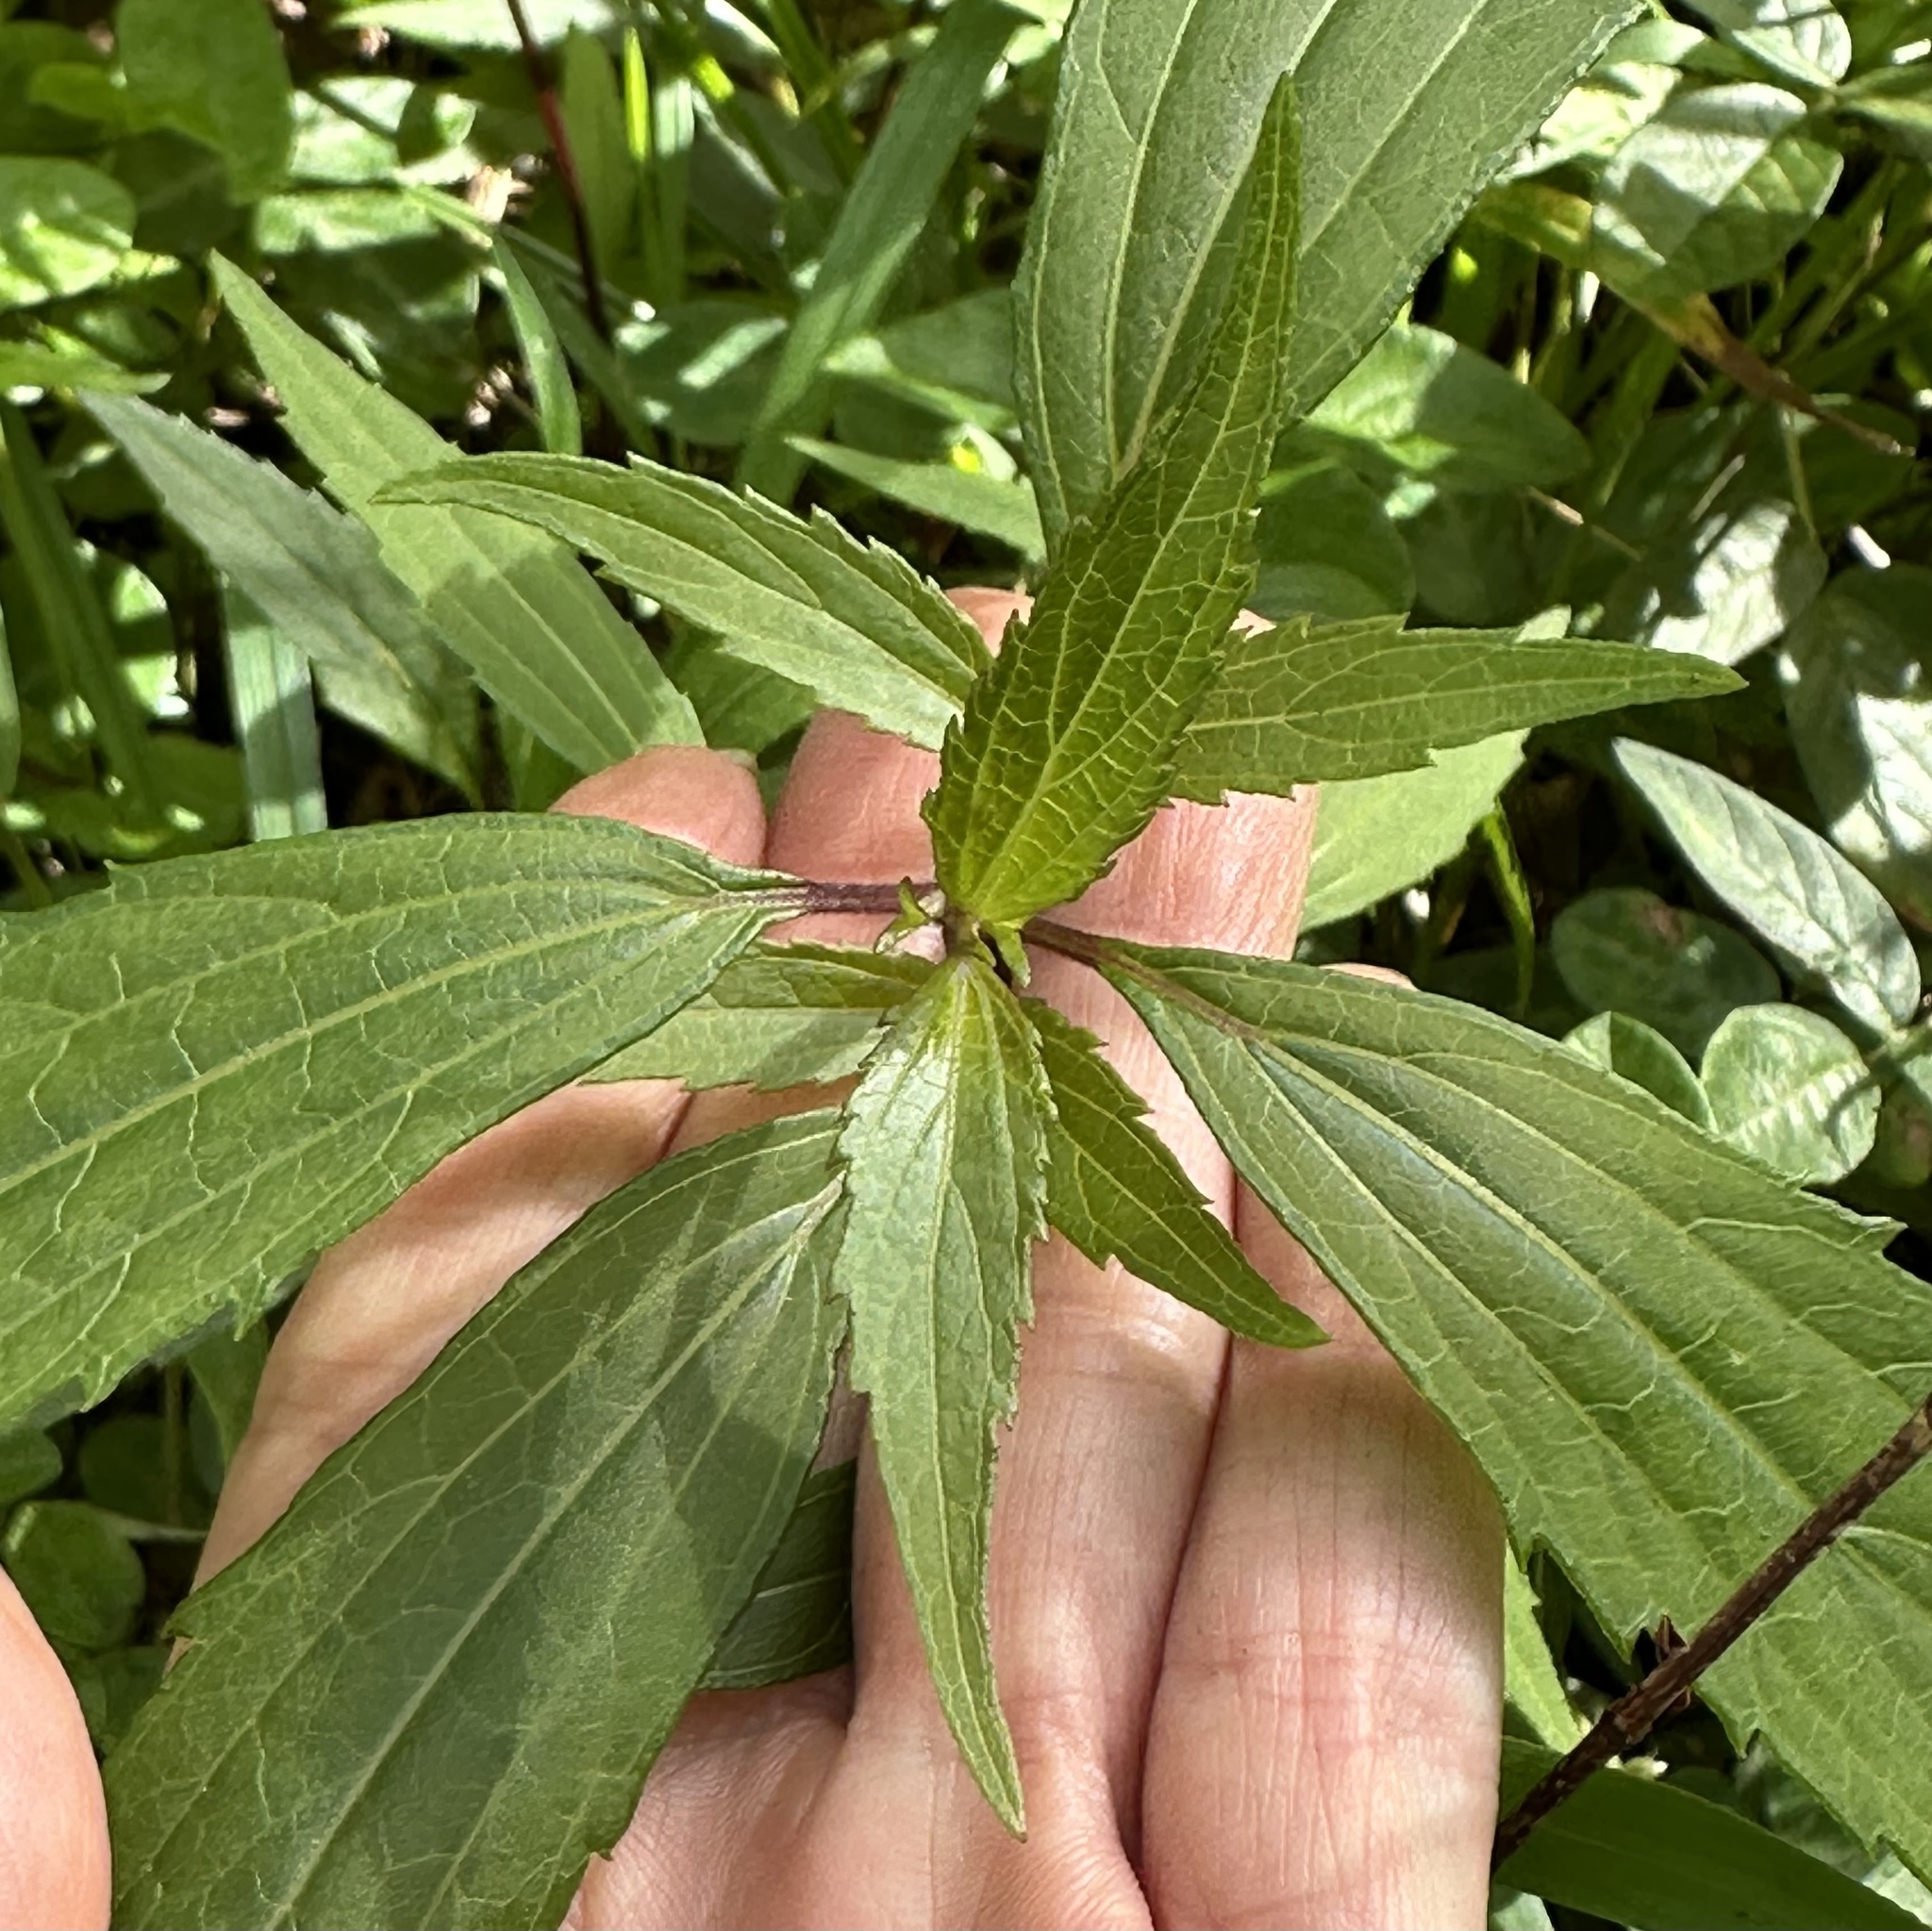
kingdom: Plantae
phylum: Tracheophyta
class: Magnoliopsida
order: Asterales
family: Asteraceae
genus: Ageratina
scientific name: Ageratina riparia
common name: Creeping croftonweed
